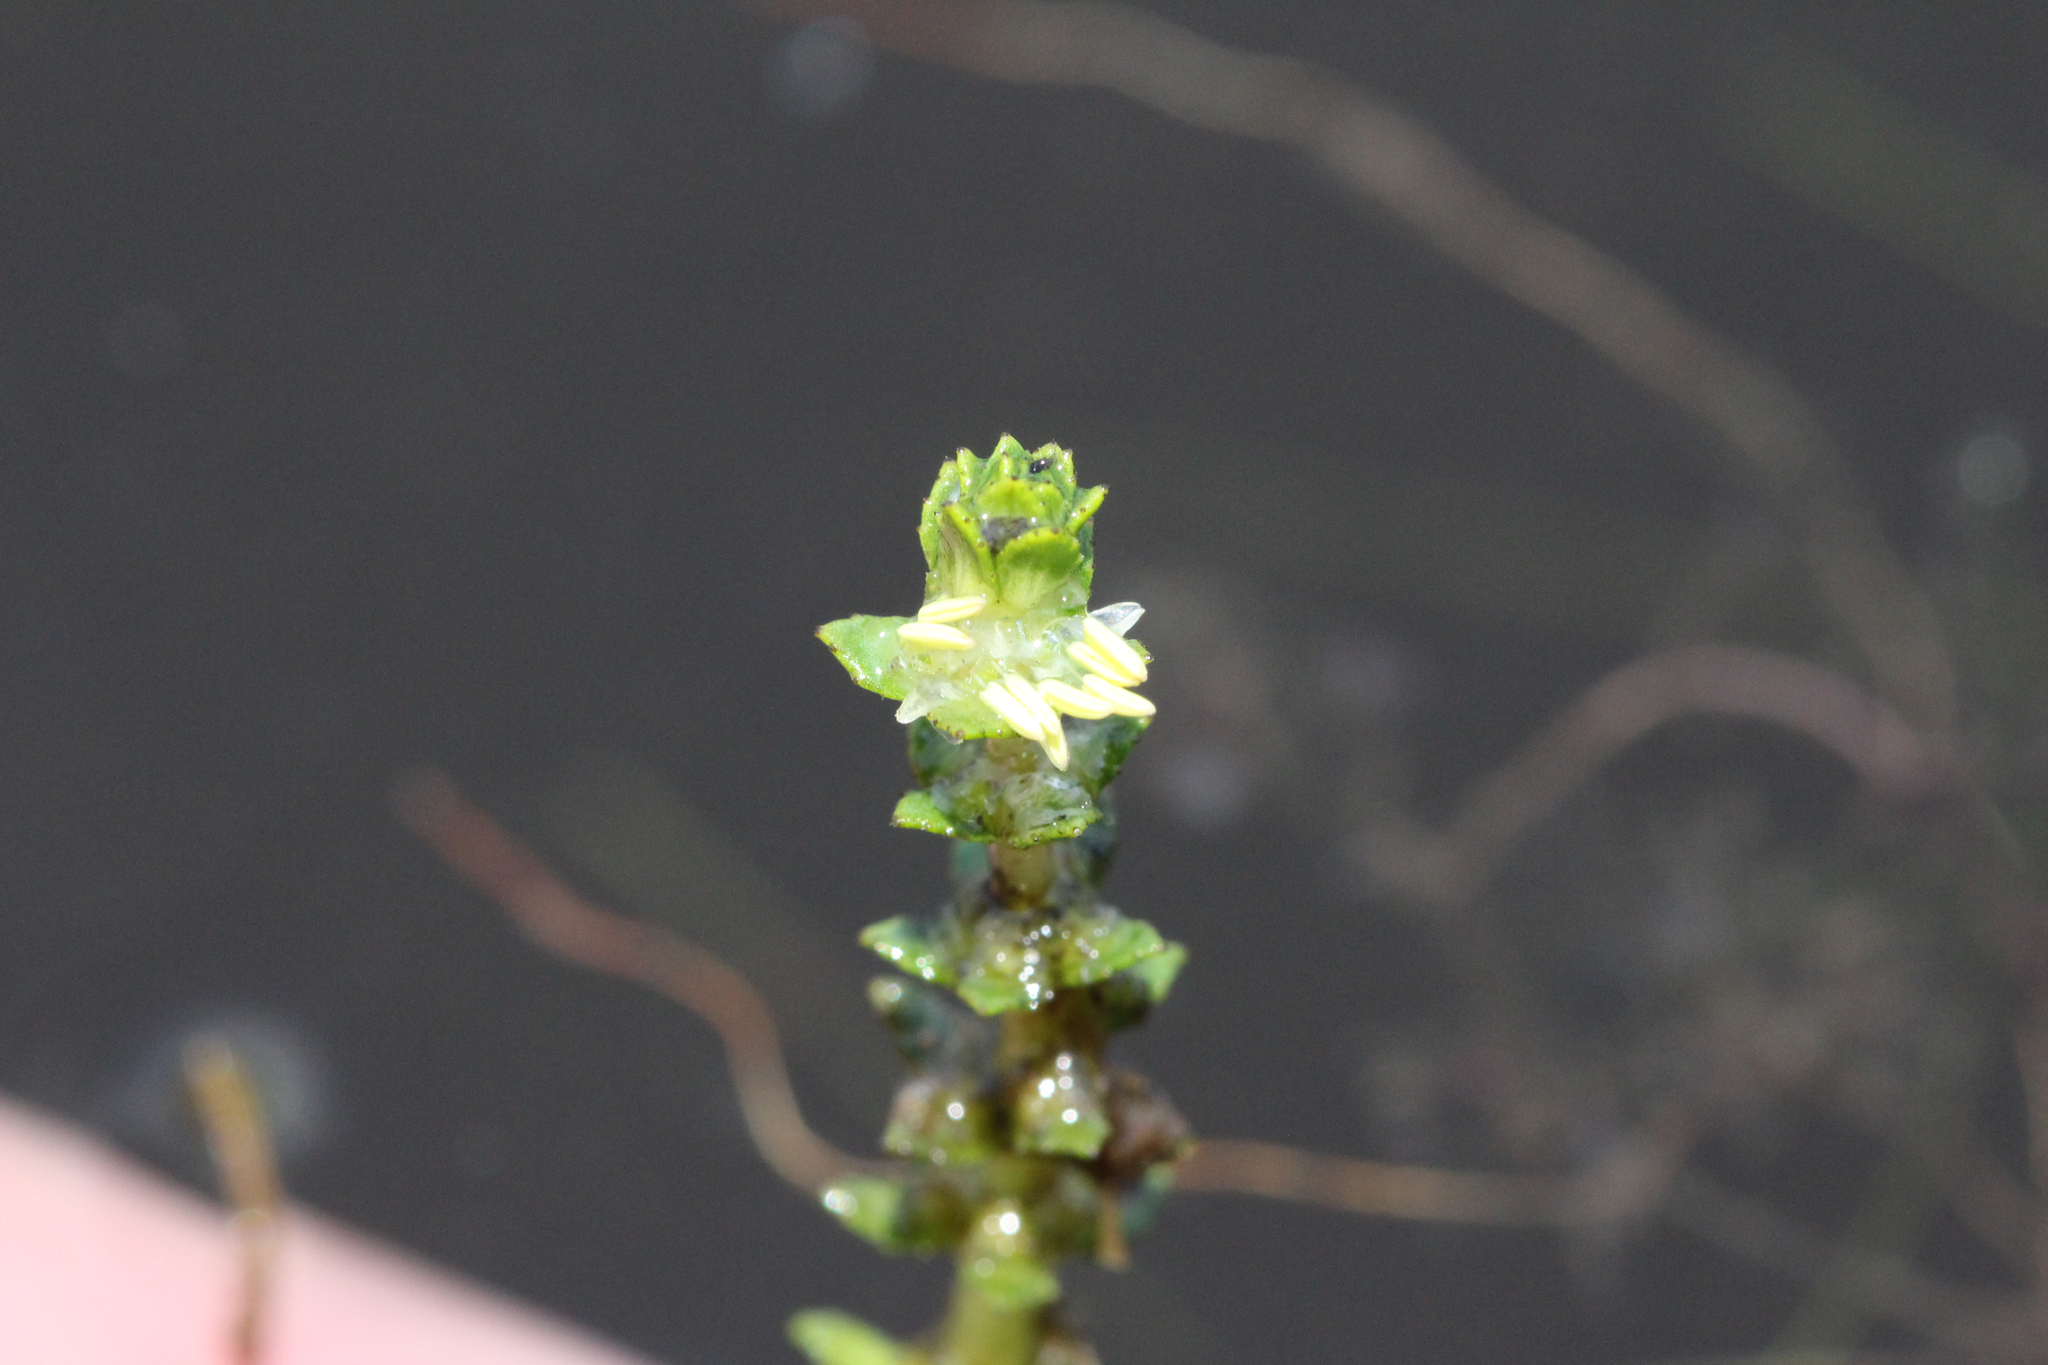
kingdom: Plantae
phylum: Tracheophyta
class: Magnoliopsida
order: Saxifragales
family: Haloragaceae
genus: Myriophyllum
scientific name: Myriophyllum heterophyllum
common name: Variable watermilfoil
